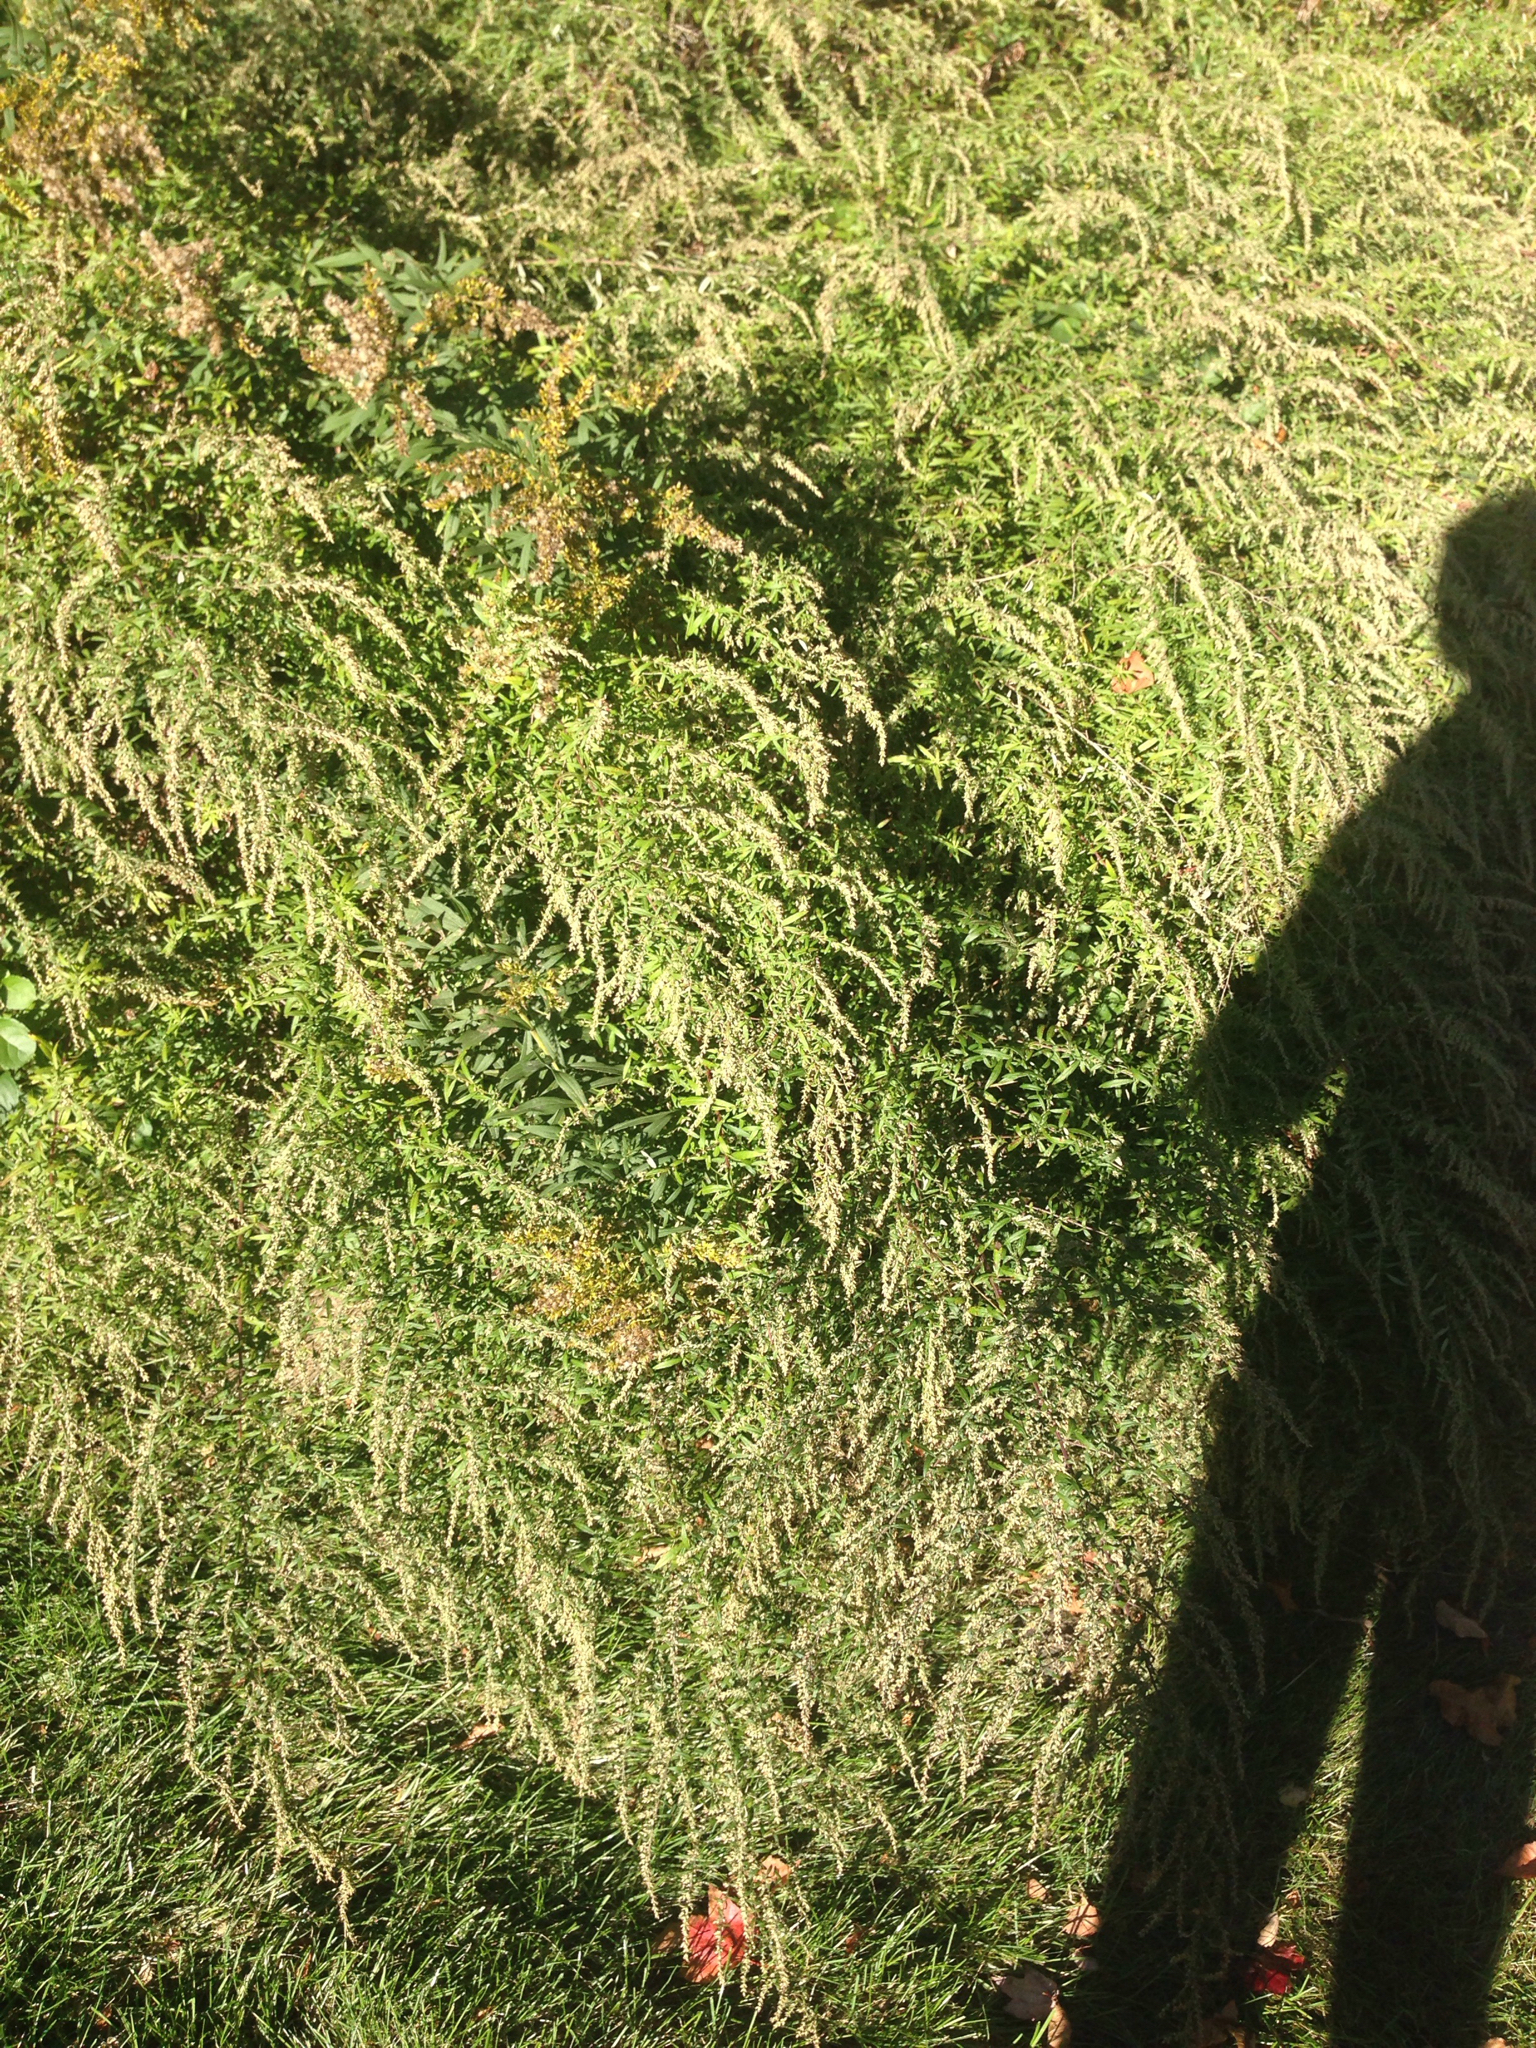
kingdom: Plantae
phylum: Tracheophyta
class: Magnoliopsida
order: Asterales
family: Asteraceae
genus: Artemisia
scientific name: Artemisia vulgaris
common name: Mugwort
